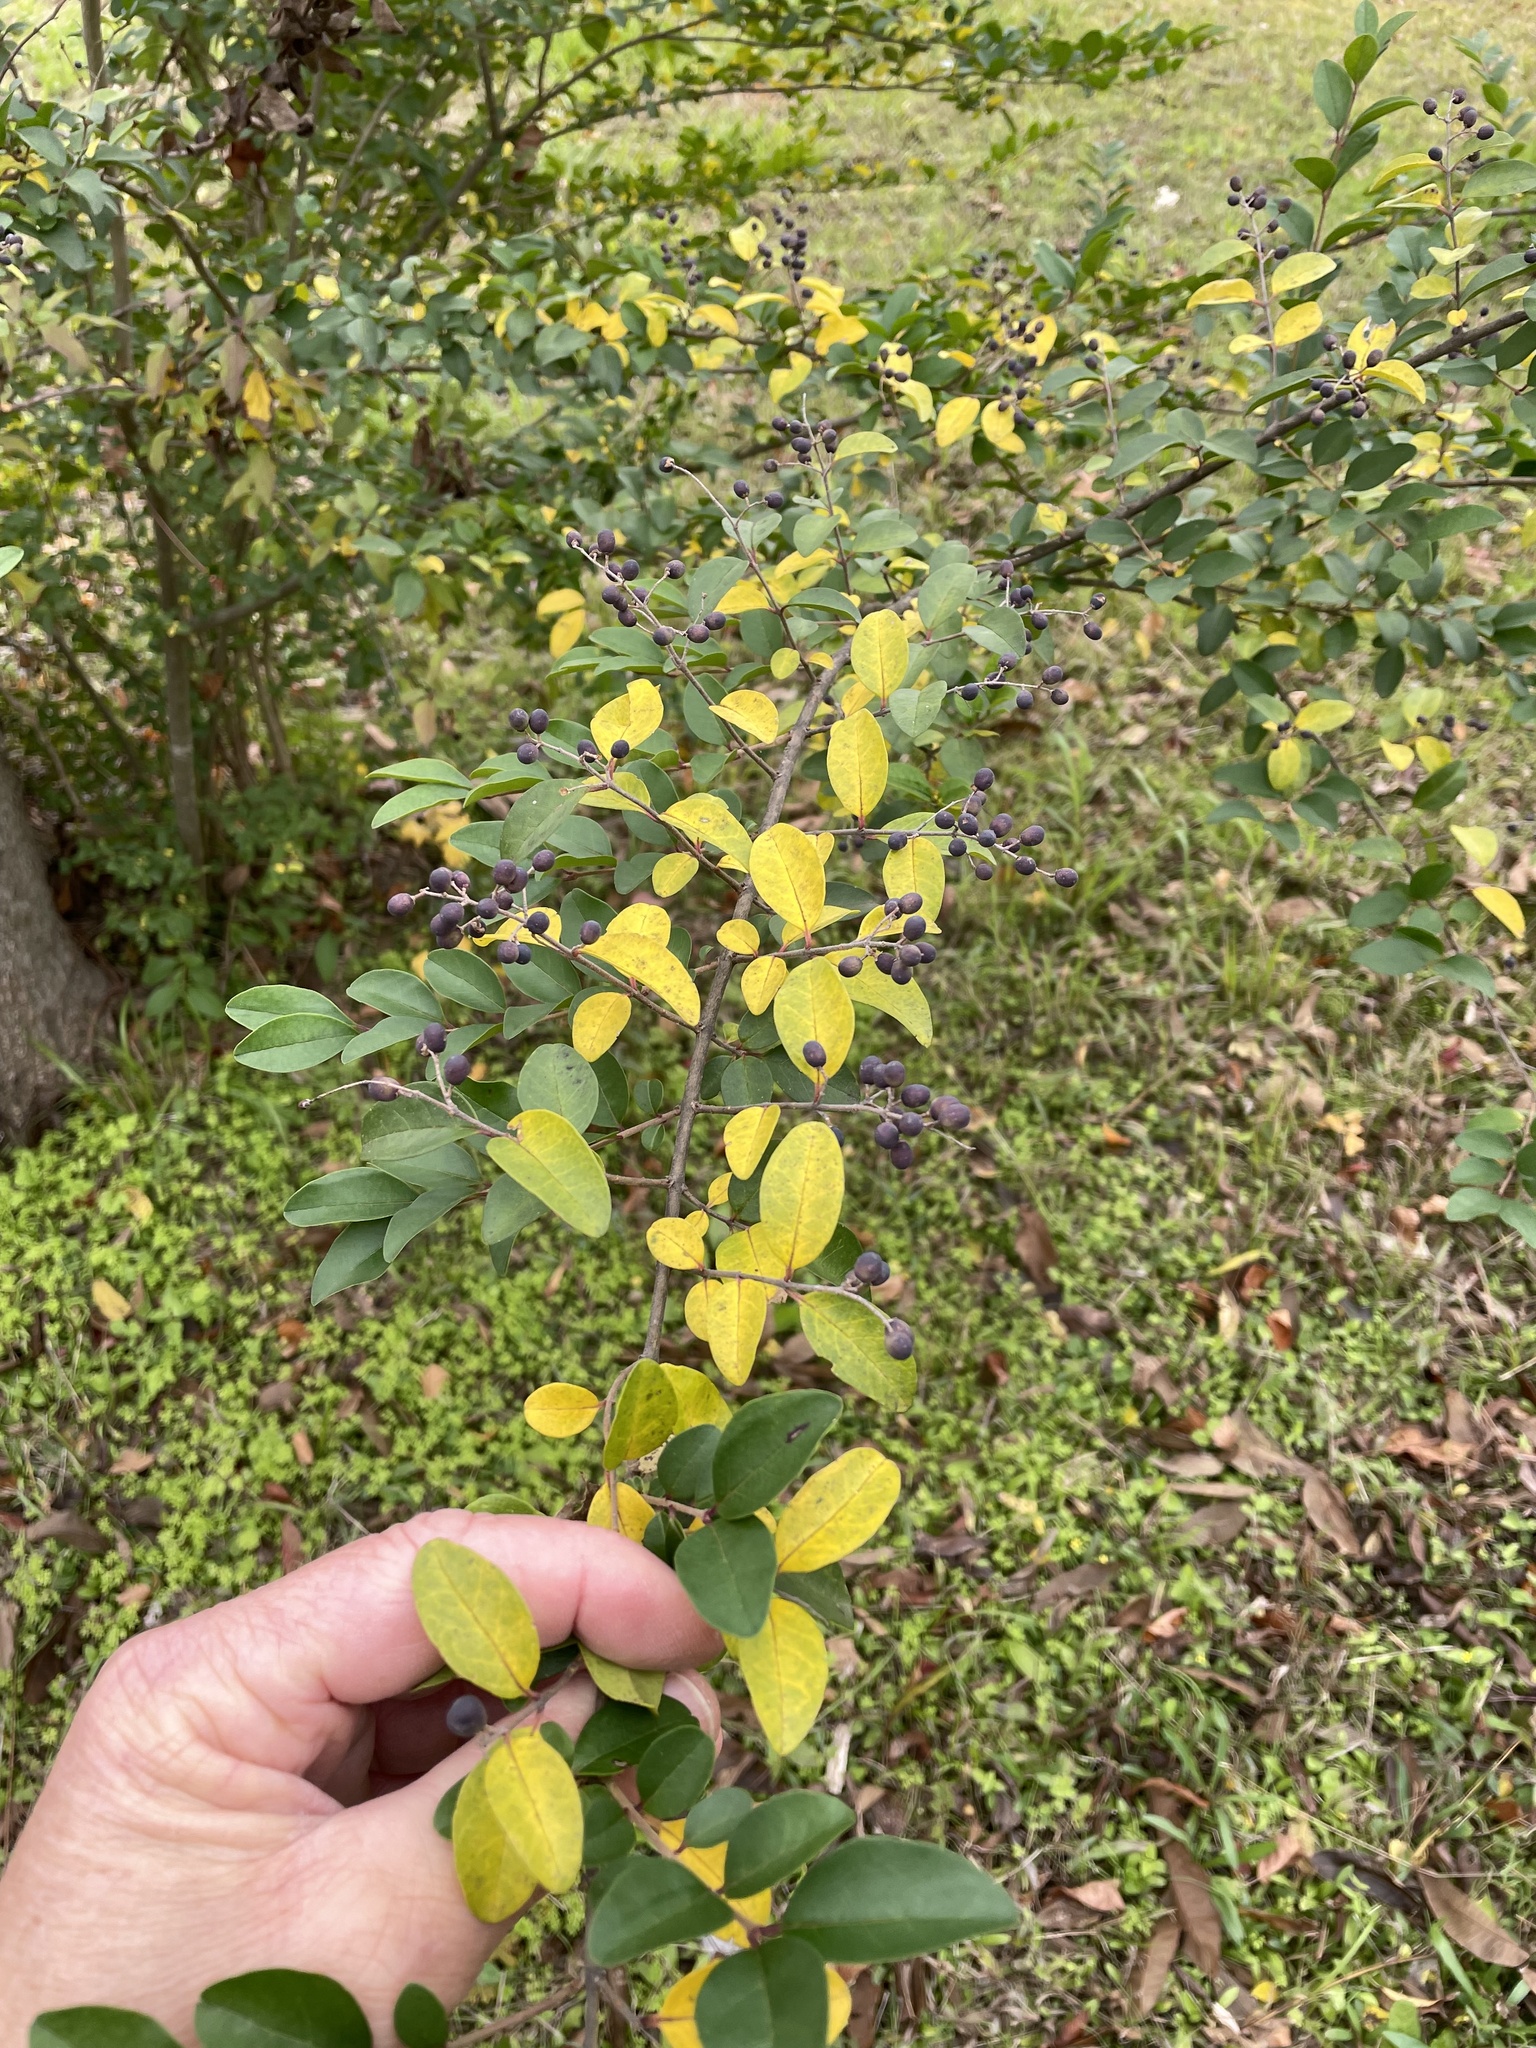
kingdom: Plantae
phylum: Tracheophyta
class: Magnoliopsida
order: Lamiales
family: Oleaceae
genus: Ligustrum
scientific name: Ligustrum sinense
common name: Chinese privet
